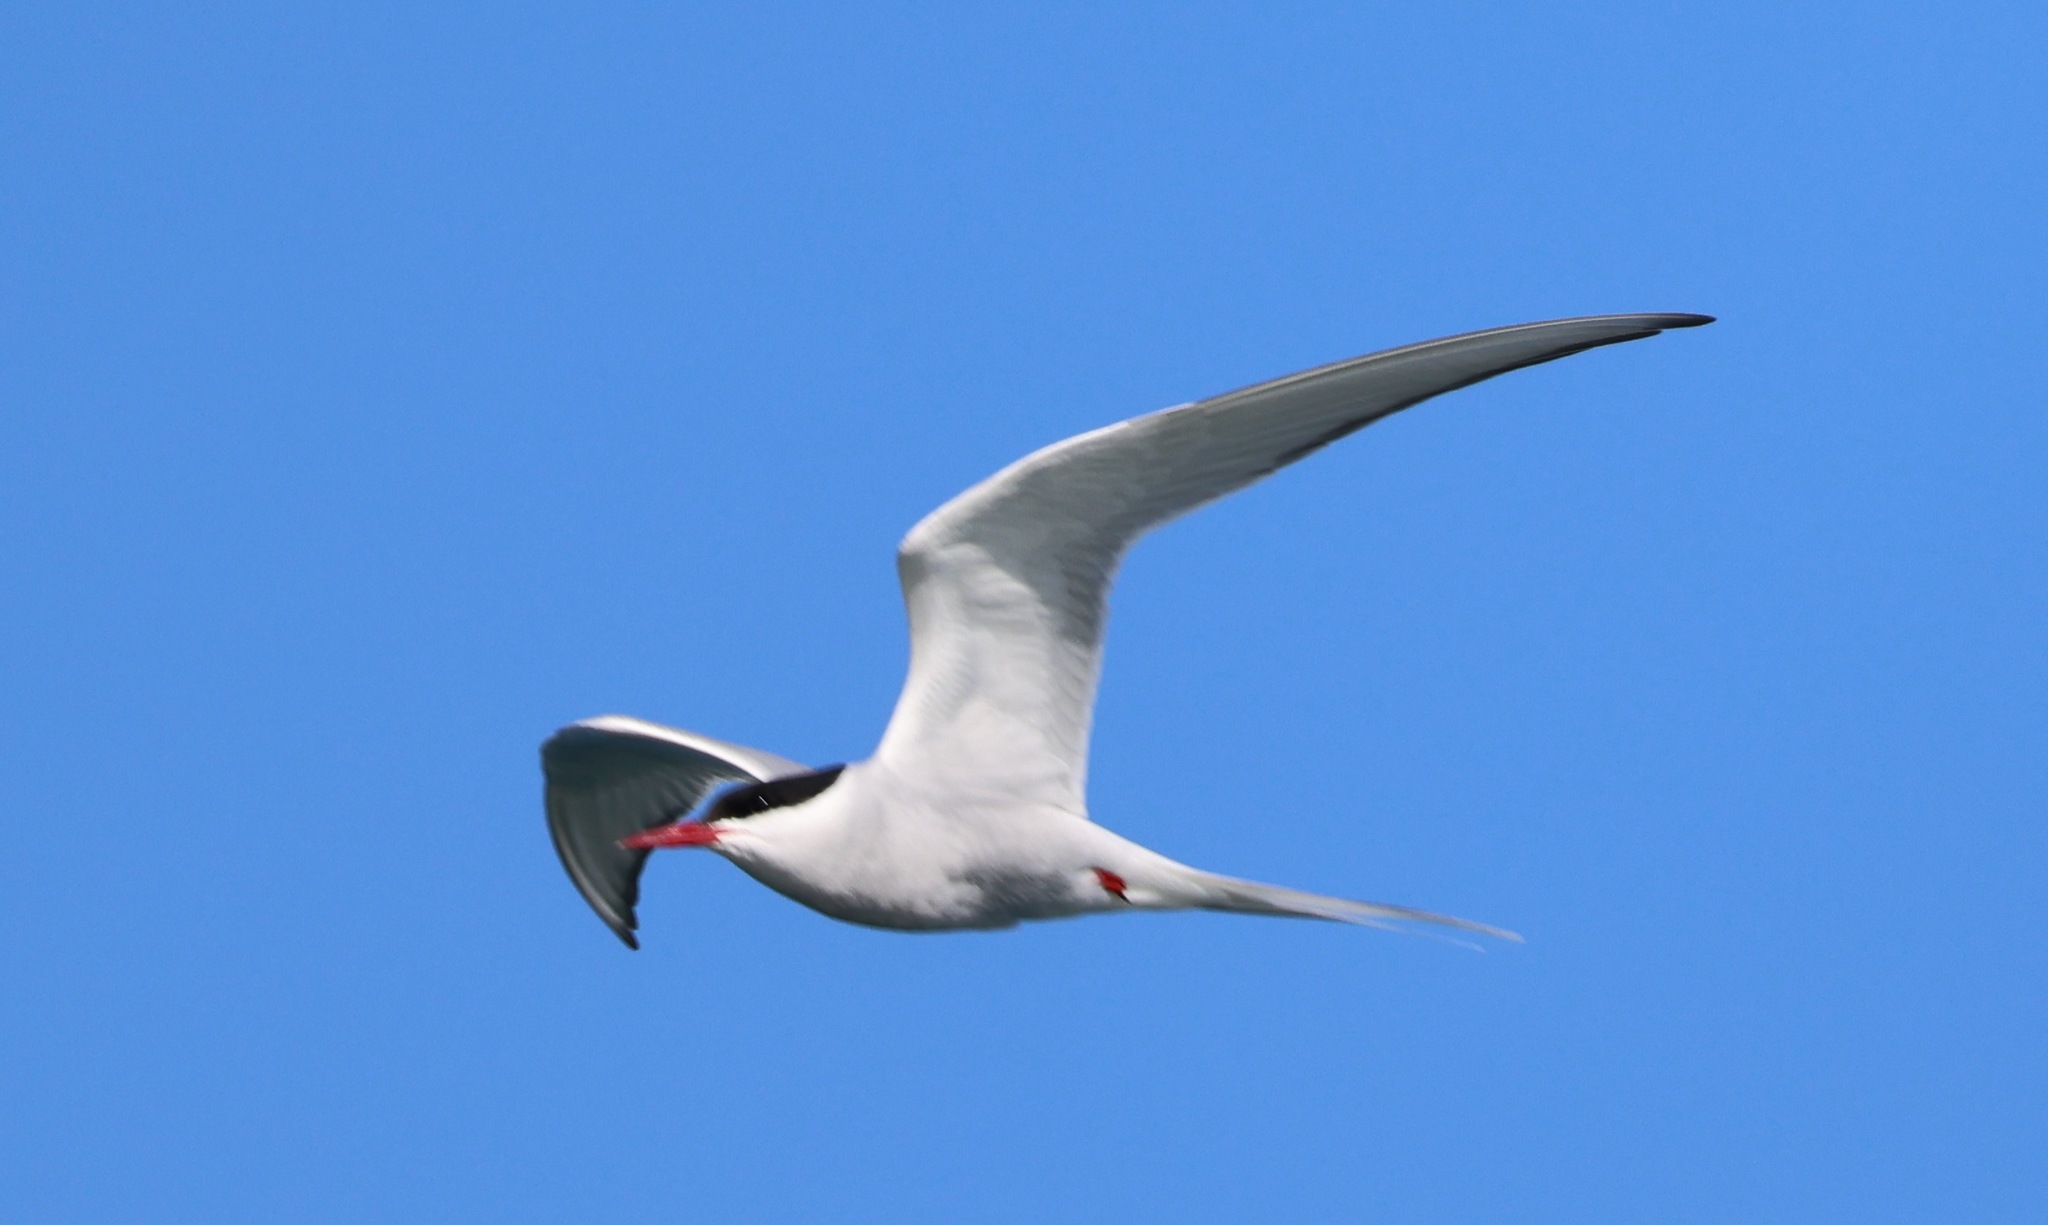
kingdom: Animalia
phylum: Chordata
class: Aves
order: Charadriiformes
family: Laridae
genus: Sterna
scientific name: Sterna paradisaea
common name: Arctic tern
